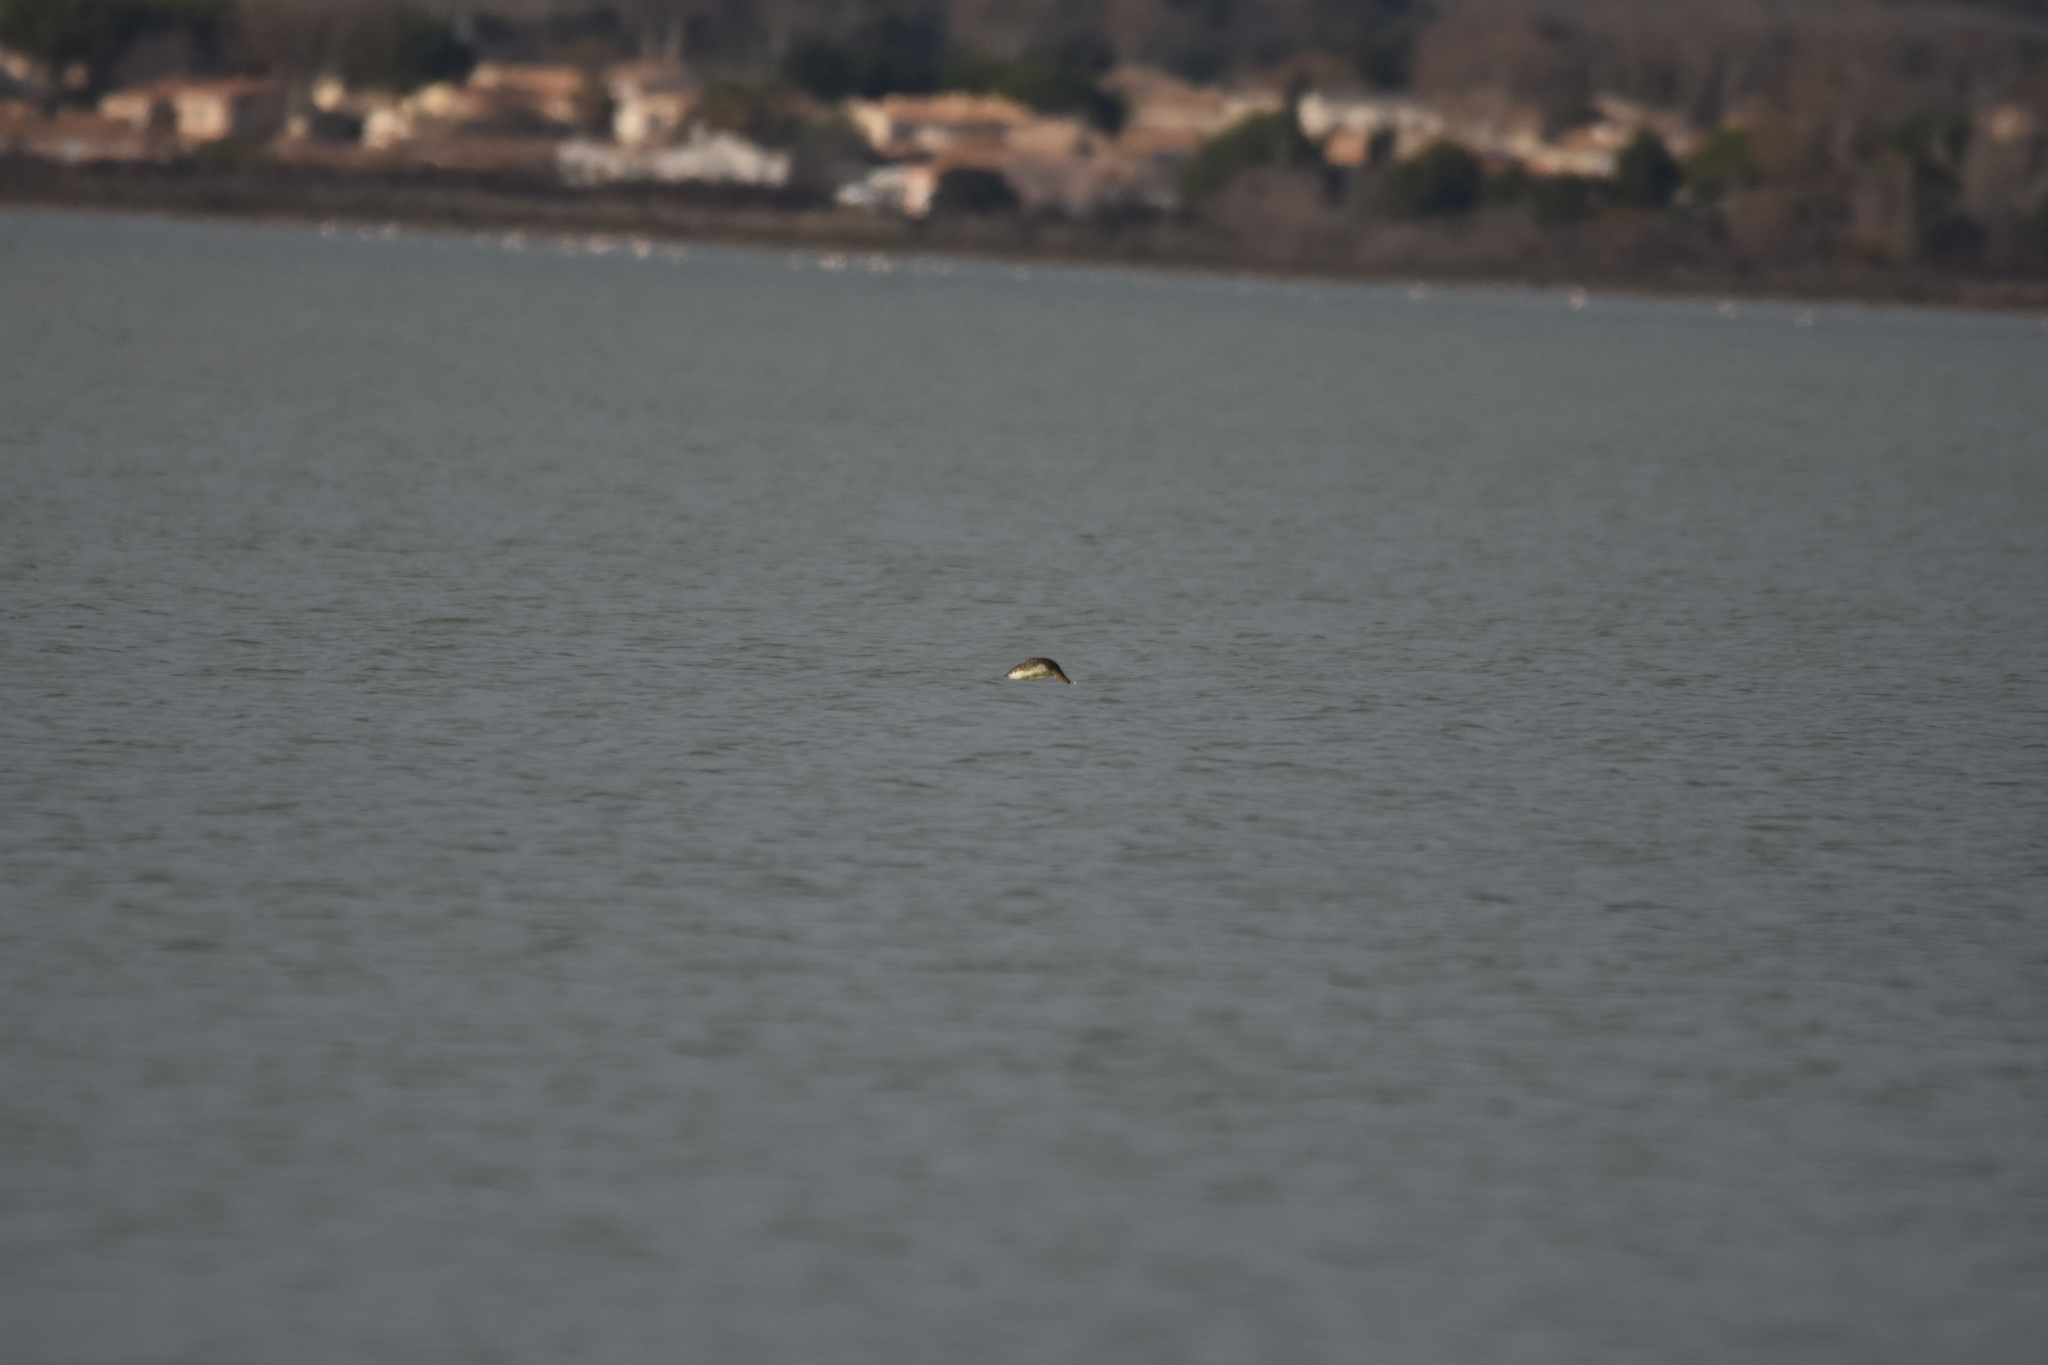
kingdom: Animalia
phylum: Chordata
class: Aves
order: Podicipediformes
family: Podicipedidae
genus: Podiceps
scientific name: Podiceps cristatus
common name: Great crested grebe
